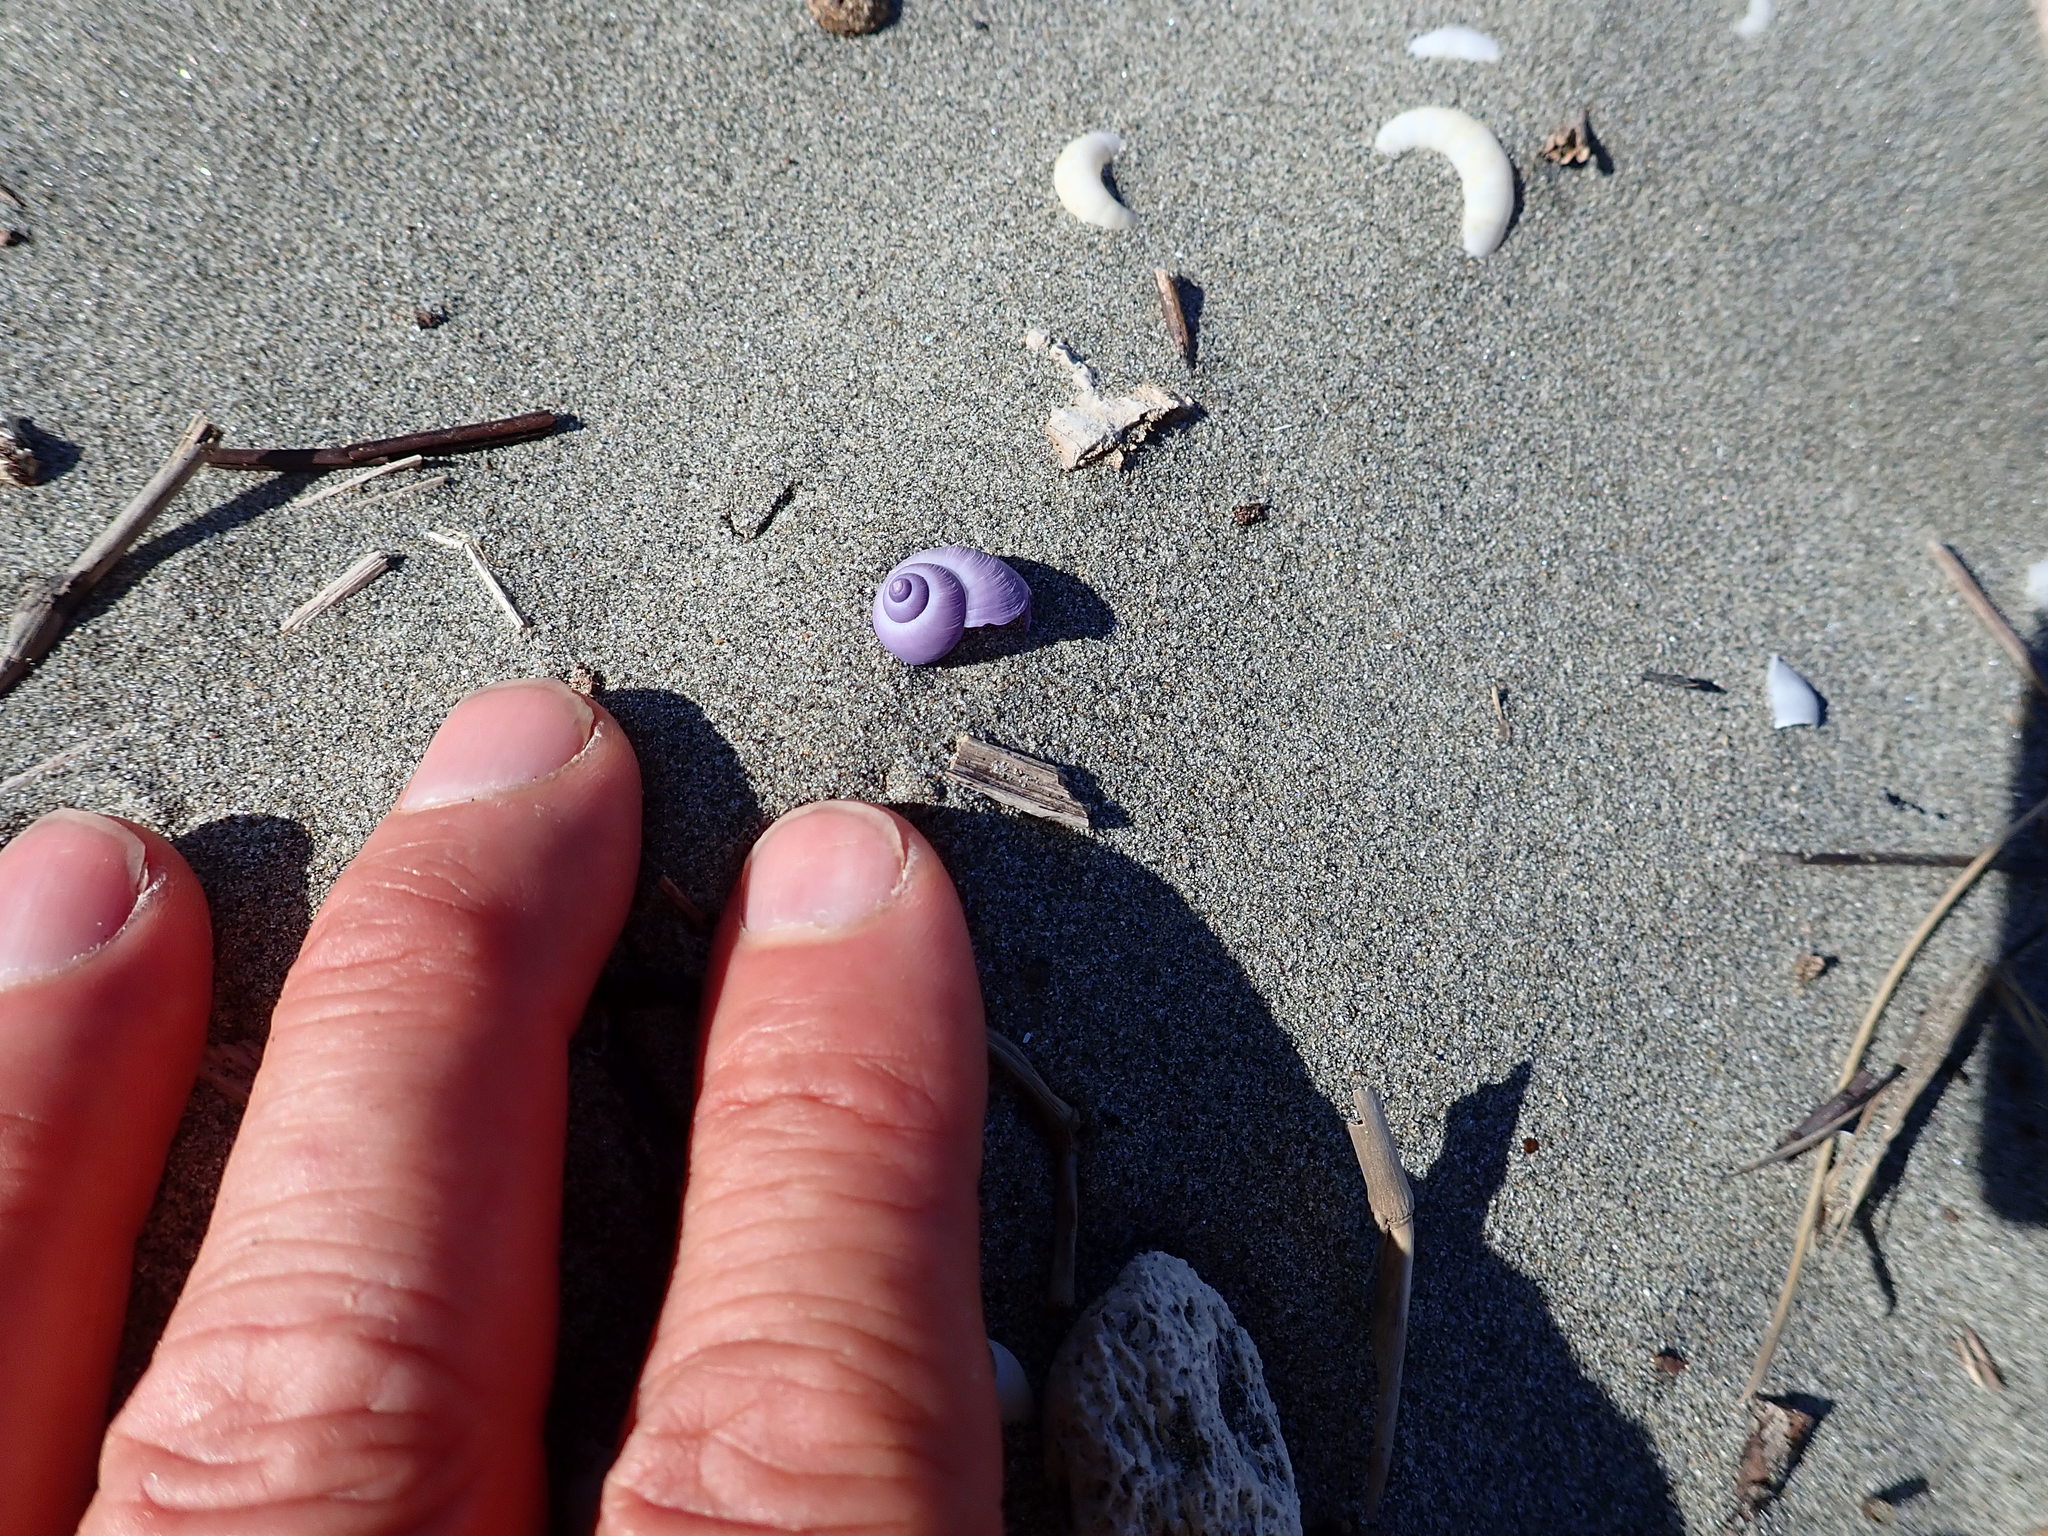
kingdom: Animalia
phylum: Mollusca
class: Gastropoda
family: Epitoniidae
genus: Janthina
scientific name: Janthina exigua
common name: Dwarf janthina
